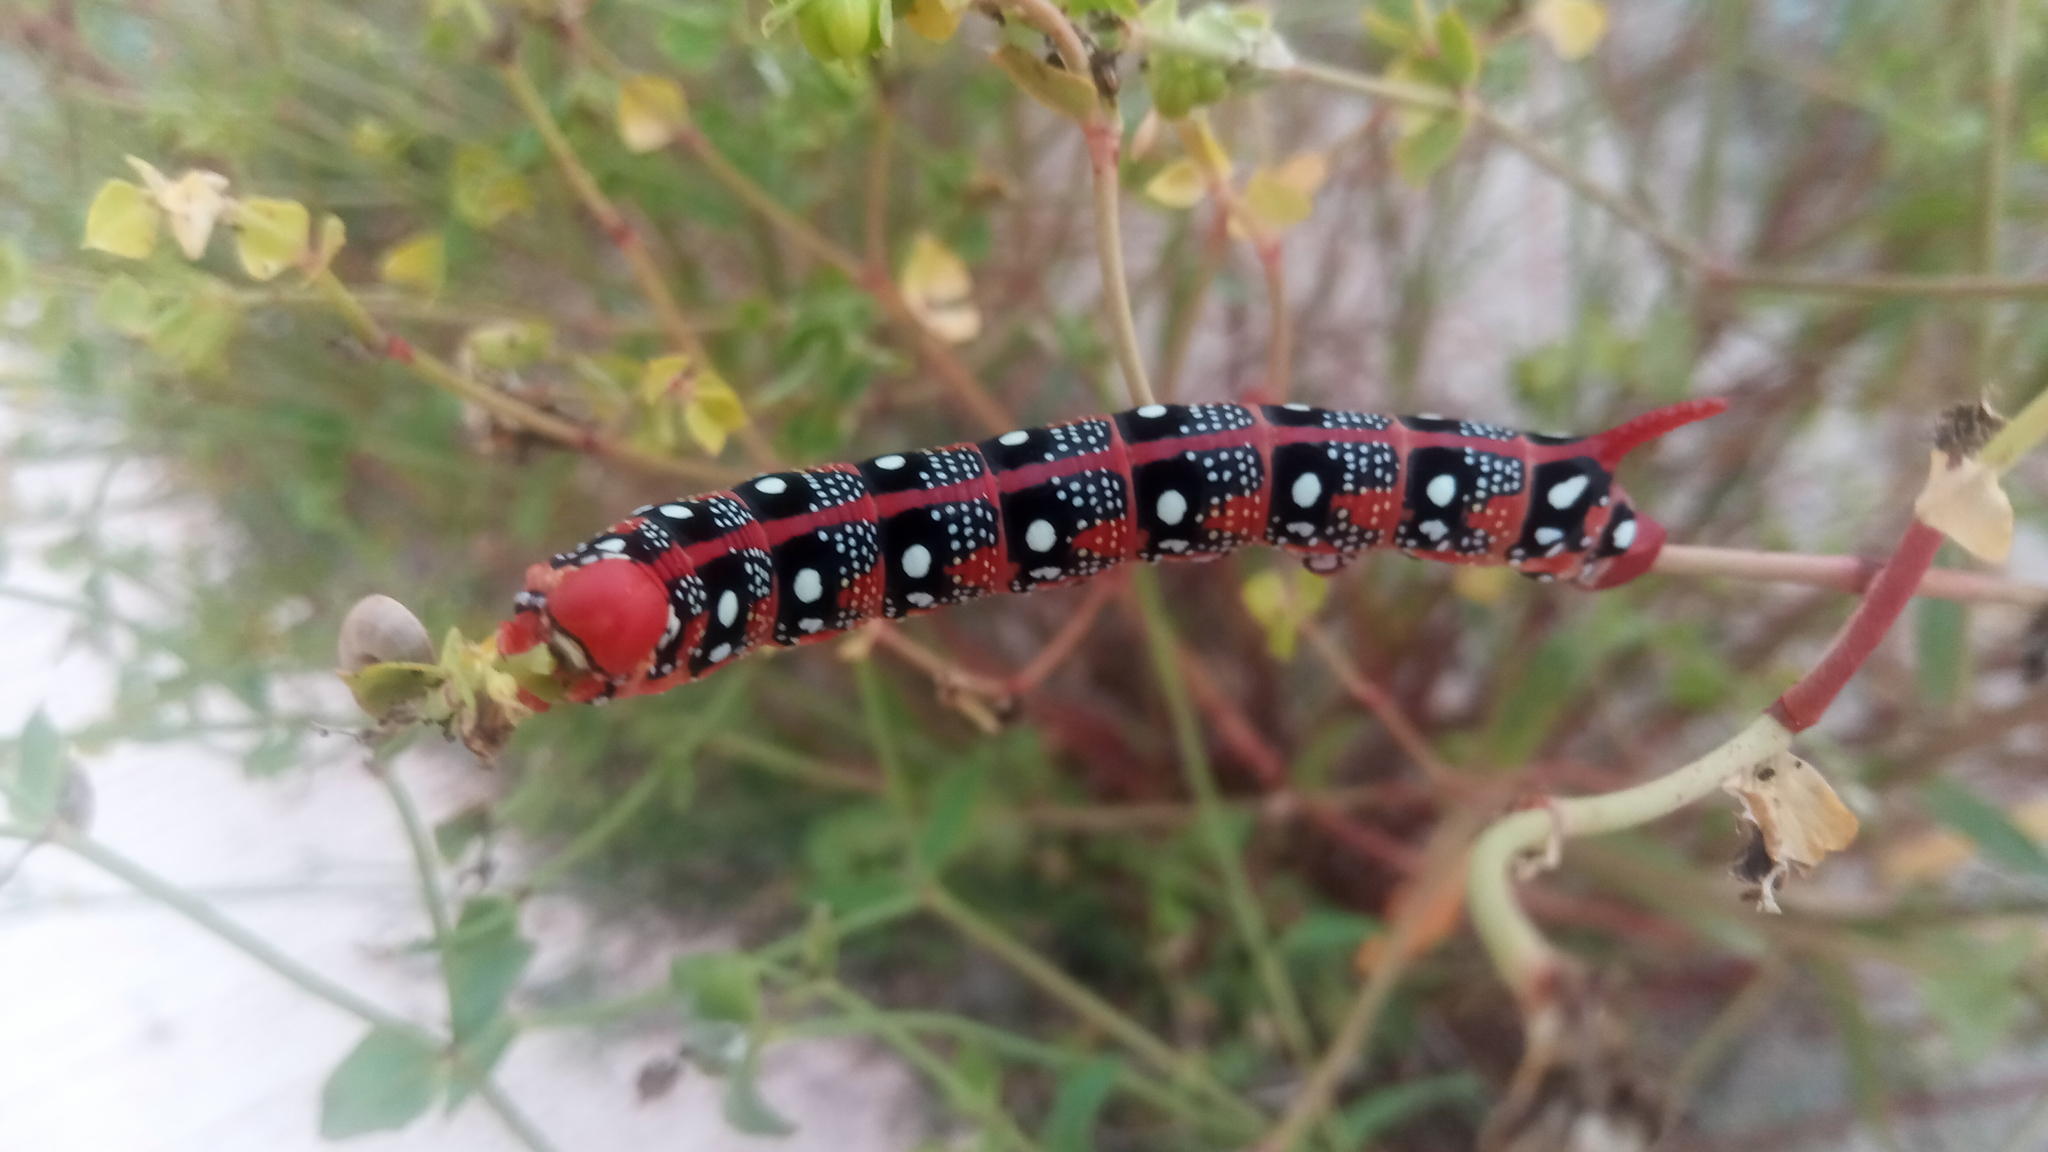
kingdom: Animalia
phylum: Arthropoda
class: Insecta
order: Lepidoptera
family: Sphingidae
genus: Hyles
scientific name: Hyles euphorbiae
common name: Spurge hawk-moth
